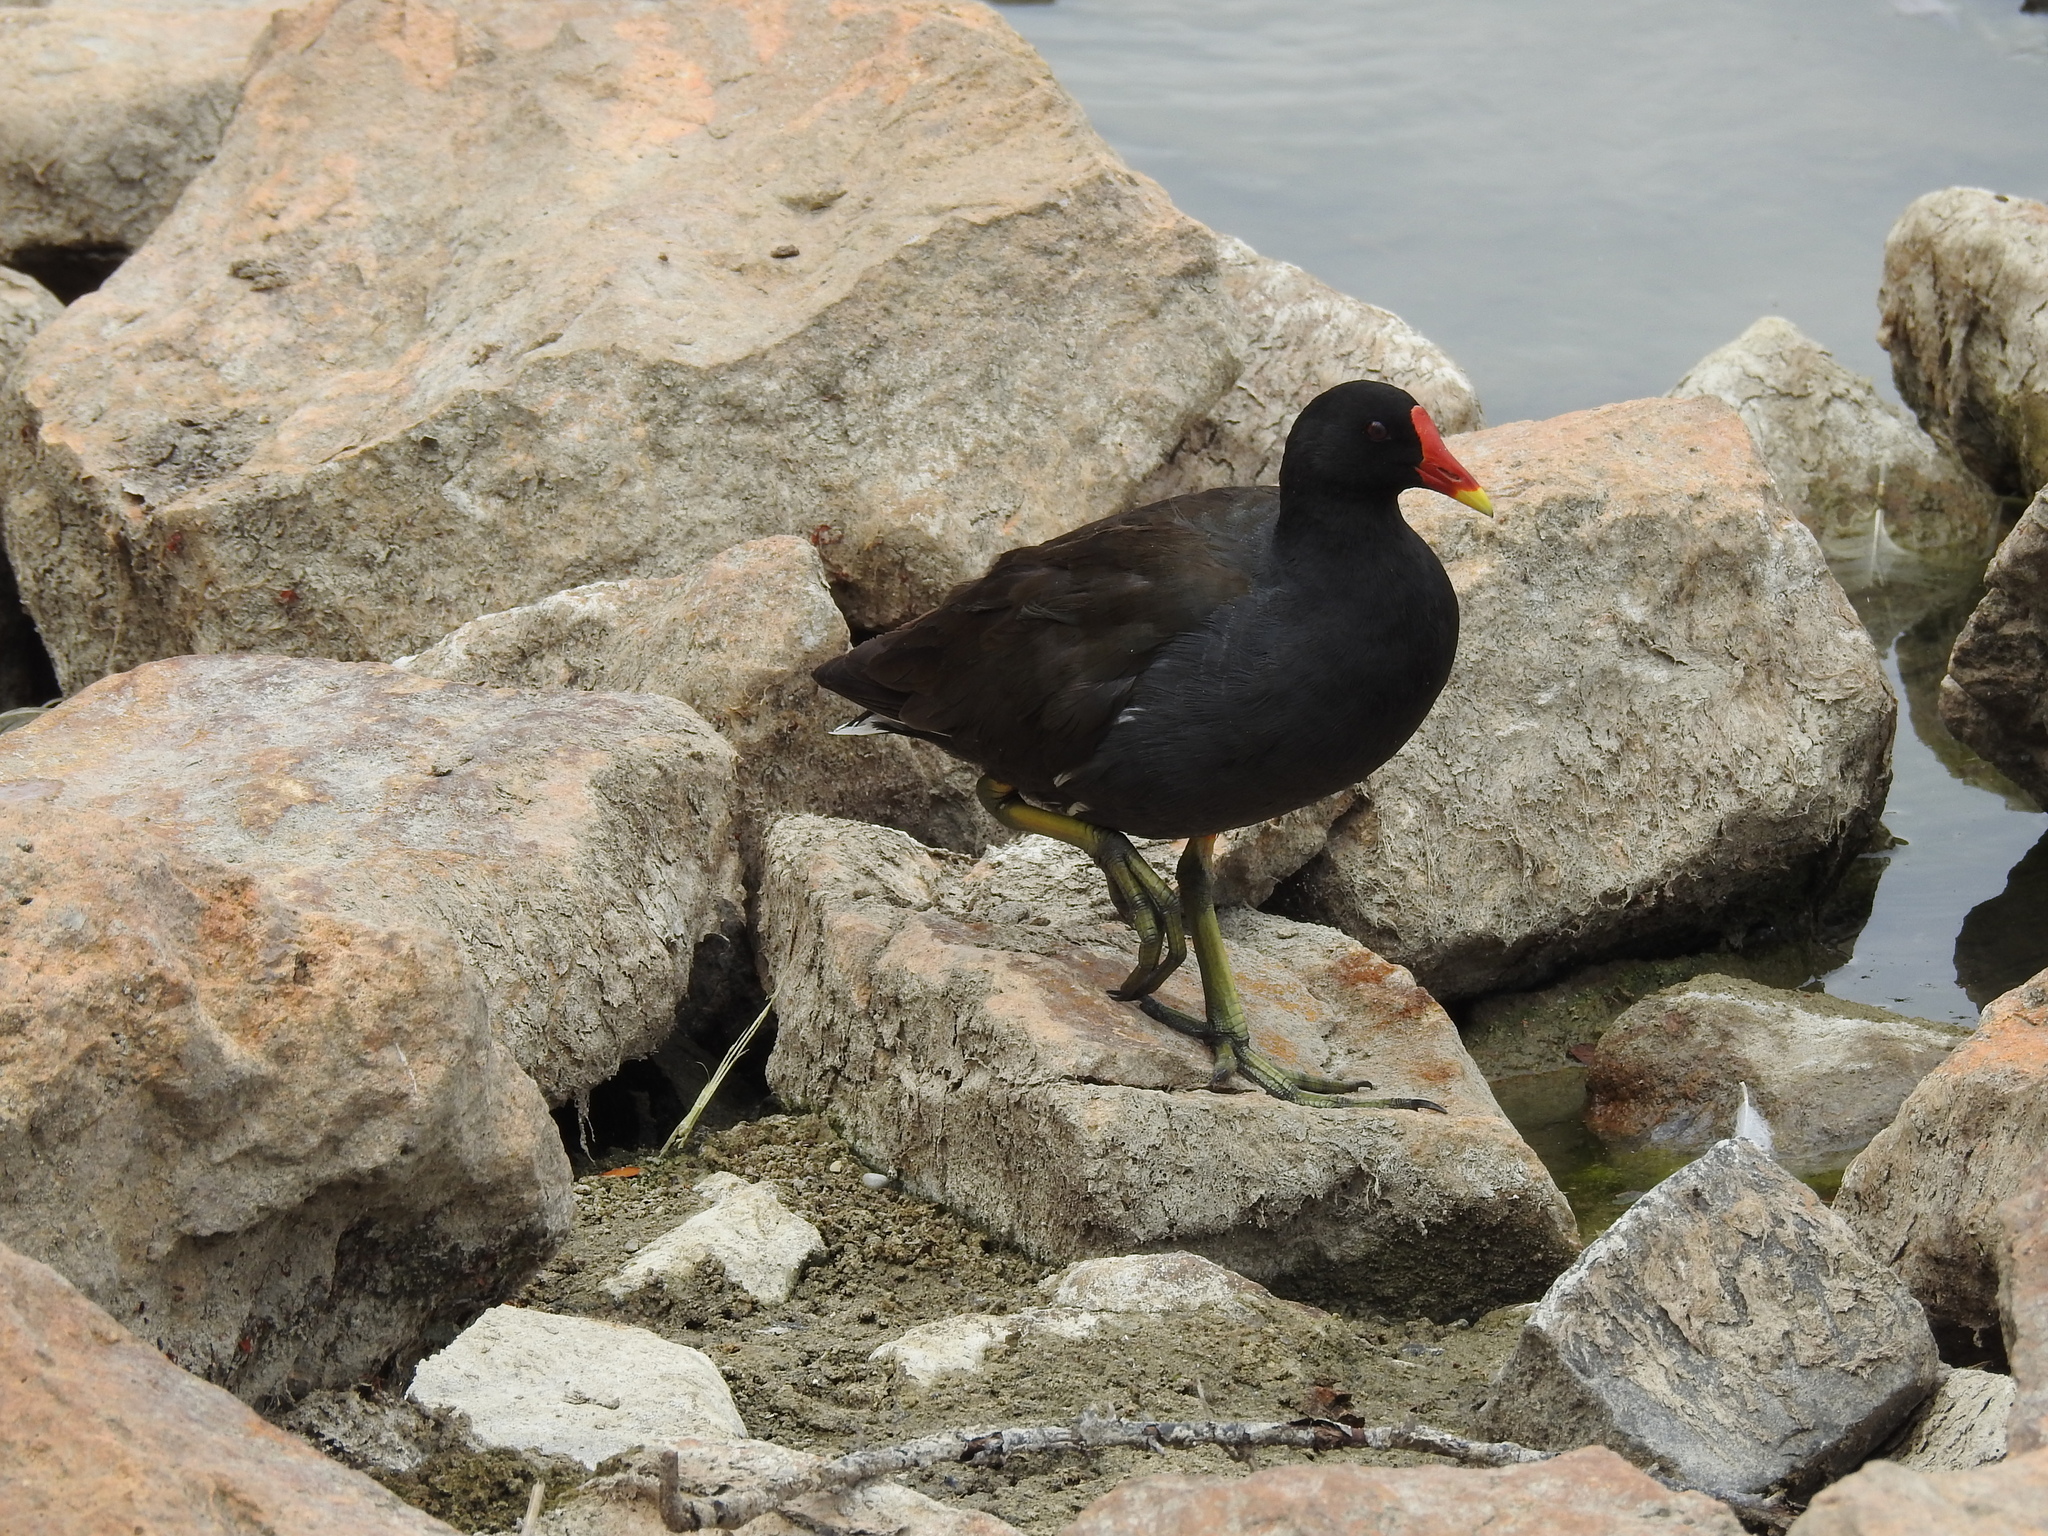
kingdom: Animalia
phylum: Chordata
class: Aves
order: Gruiformes
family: Rallidae
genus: Gallinula
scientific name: Gallinula chloropus
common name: Common moorhen
